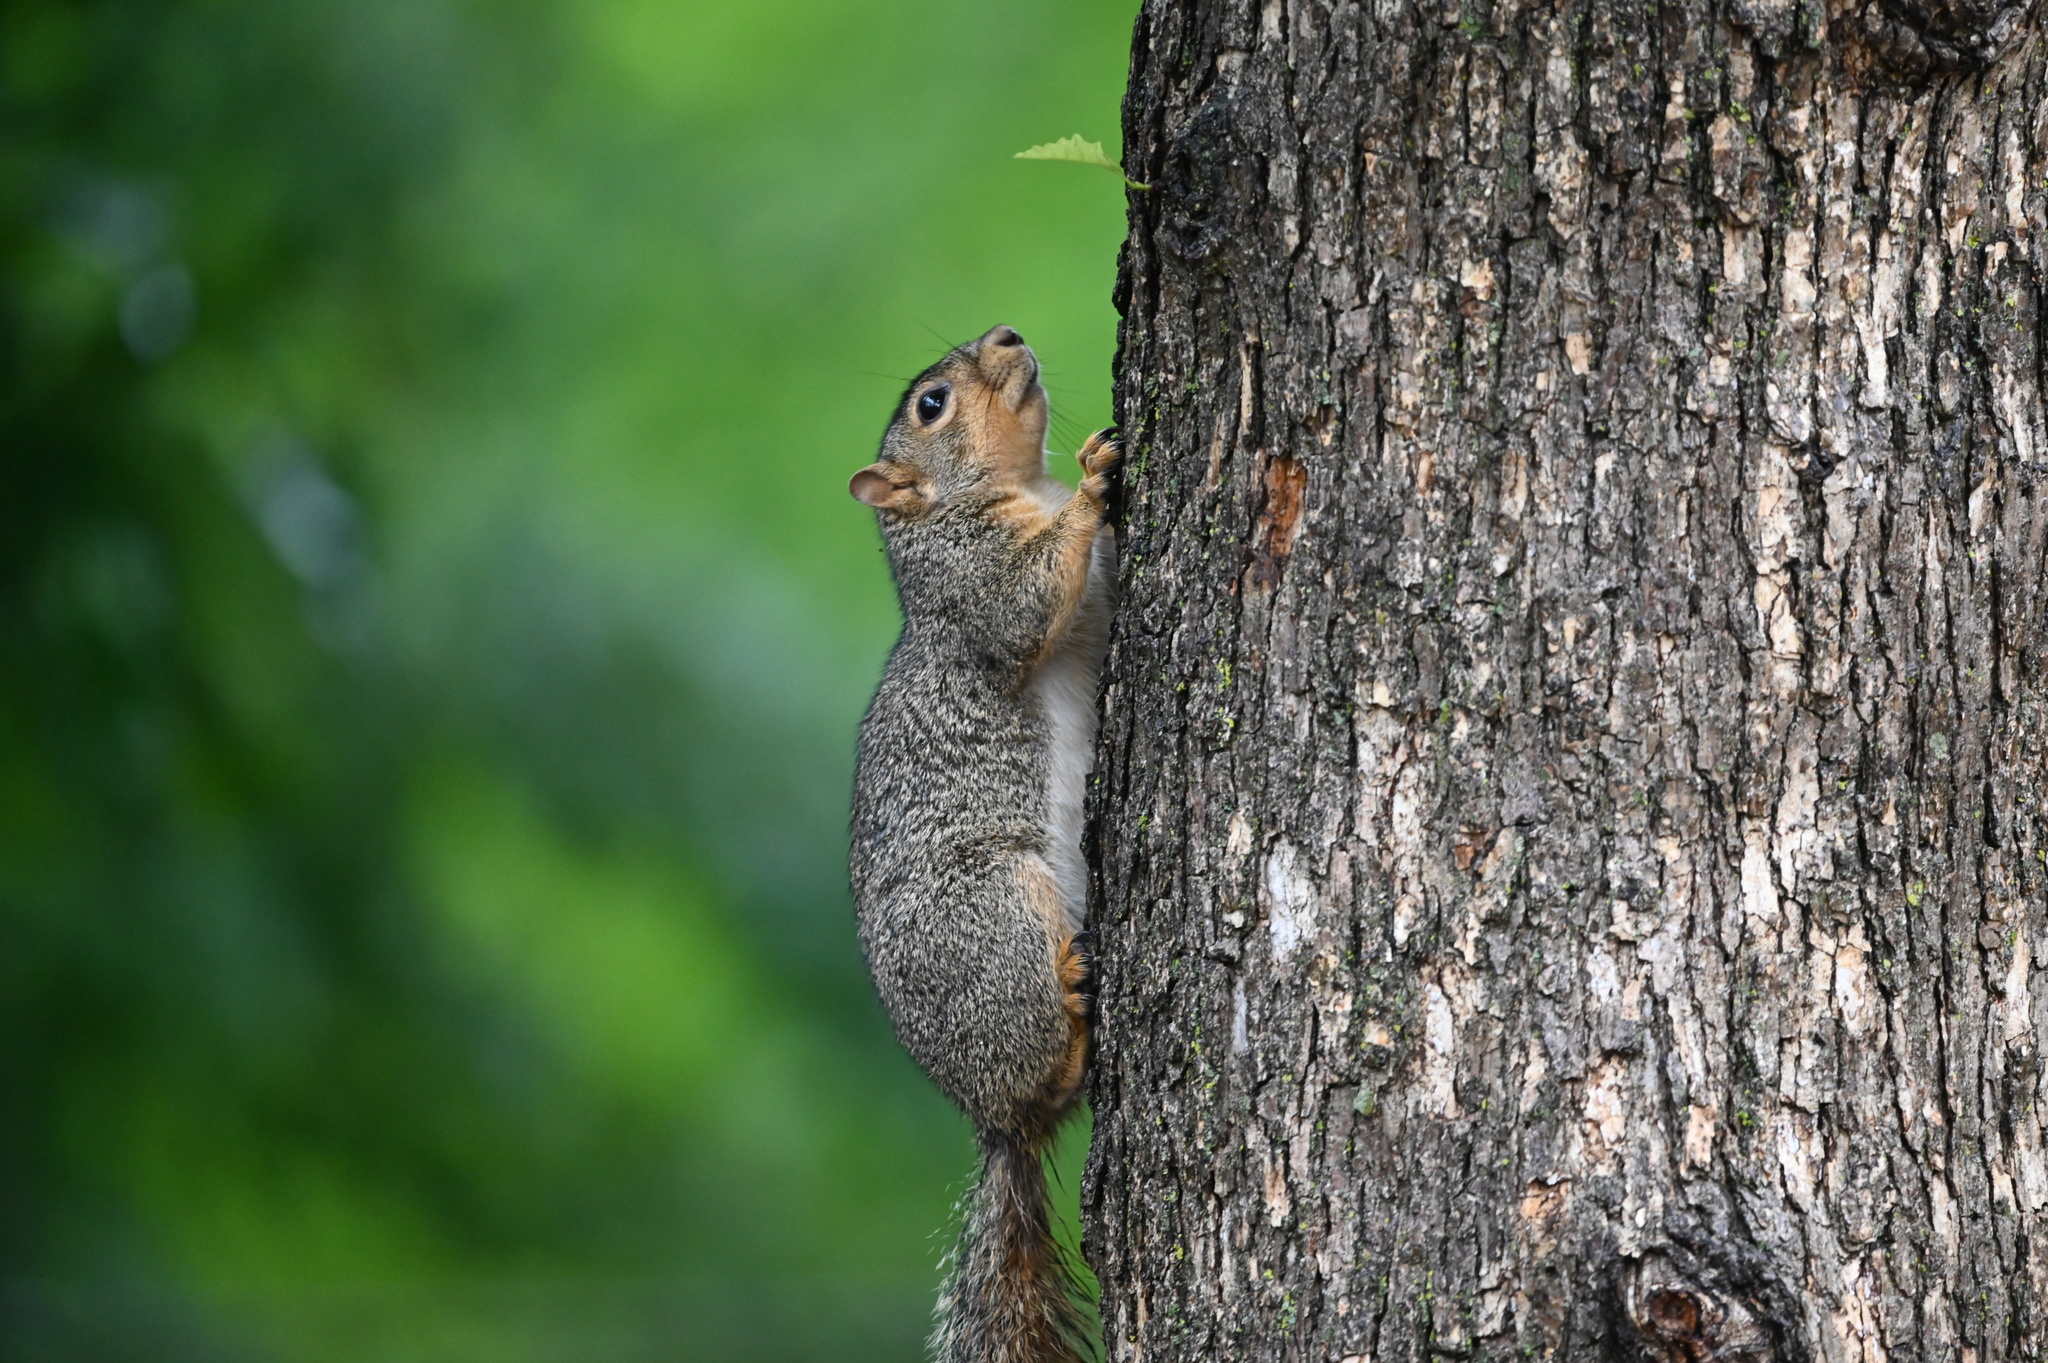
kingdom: Animalia
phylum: Chordata
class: Mammalia
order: Rodentia
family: Sciuridae
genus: Sciurus
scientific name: Sciurus niger
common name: Fox squirrel
